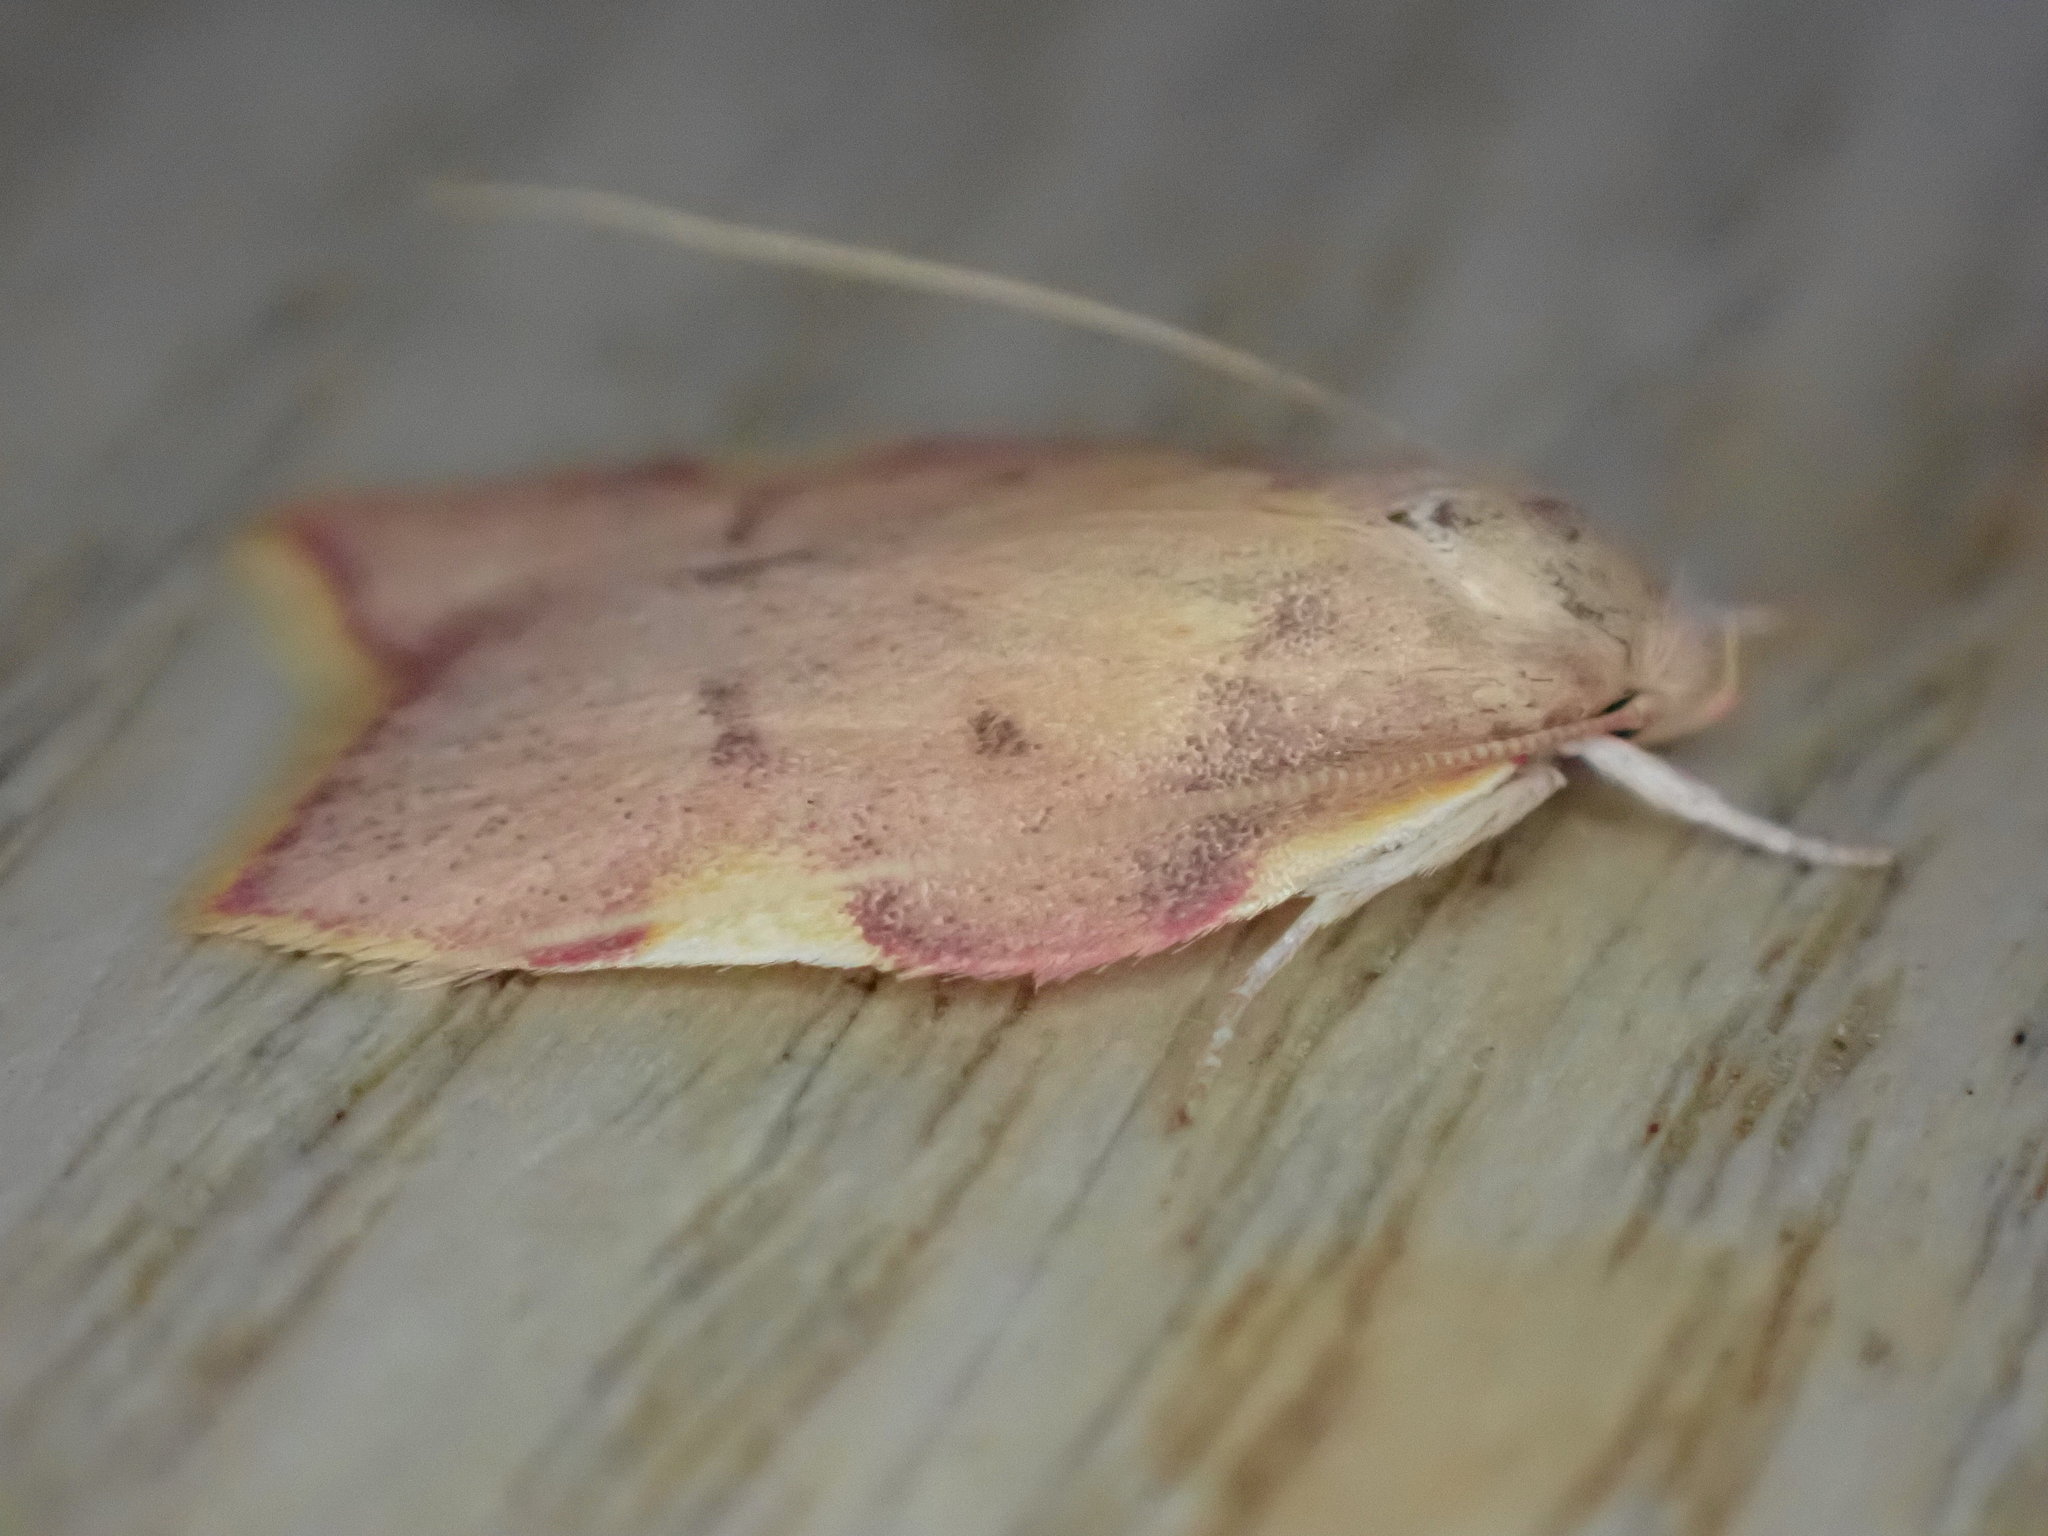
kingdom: Animalia
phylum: Arthropoda
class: Insecta
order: Lepidoptera
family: Peleopodidae
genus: Carcina
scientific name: Carcina quercana
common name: Moth
